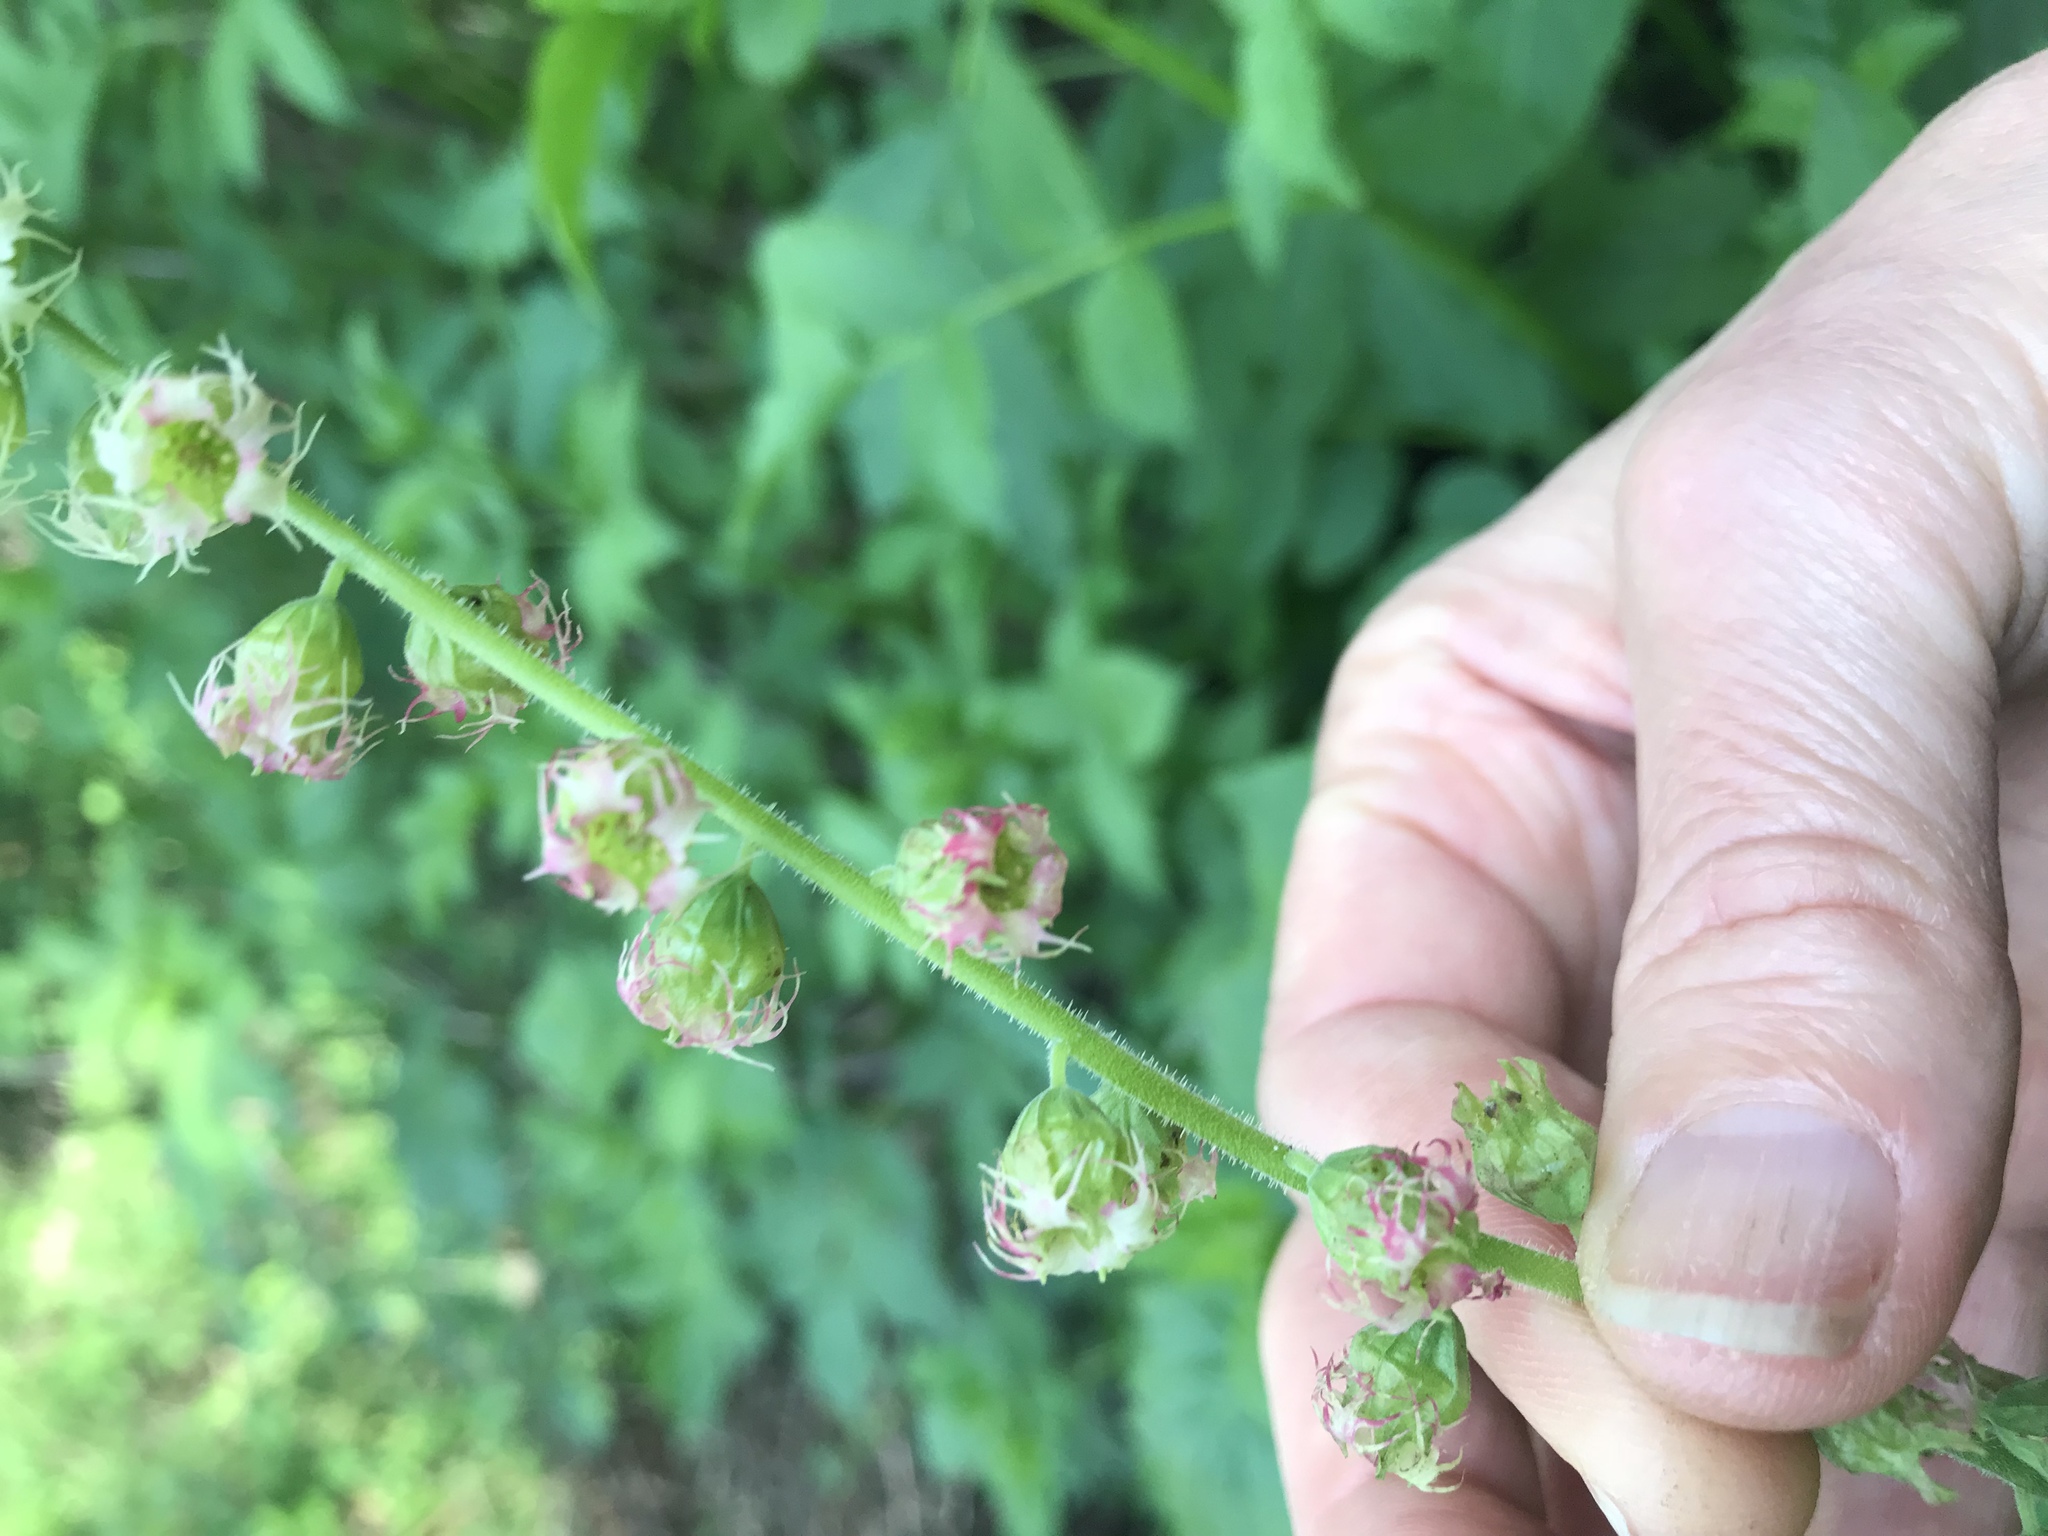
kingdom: Plantae
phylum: Tracheophyta
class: Magnoliopsida
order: Saxifragales
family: Saxifragaceae
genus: Tellima
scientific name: Tellima grandiflora
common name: Fringecups
